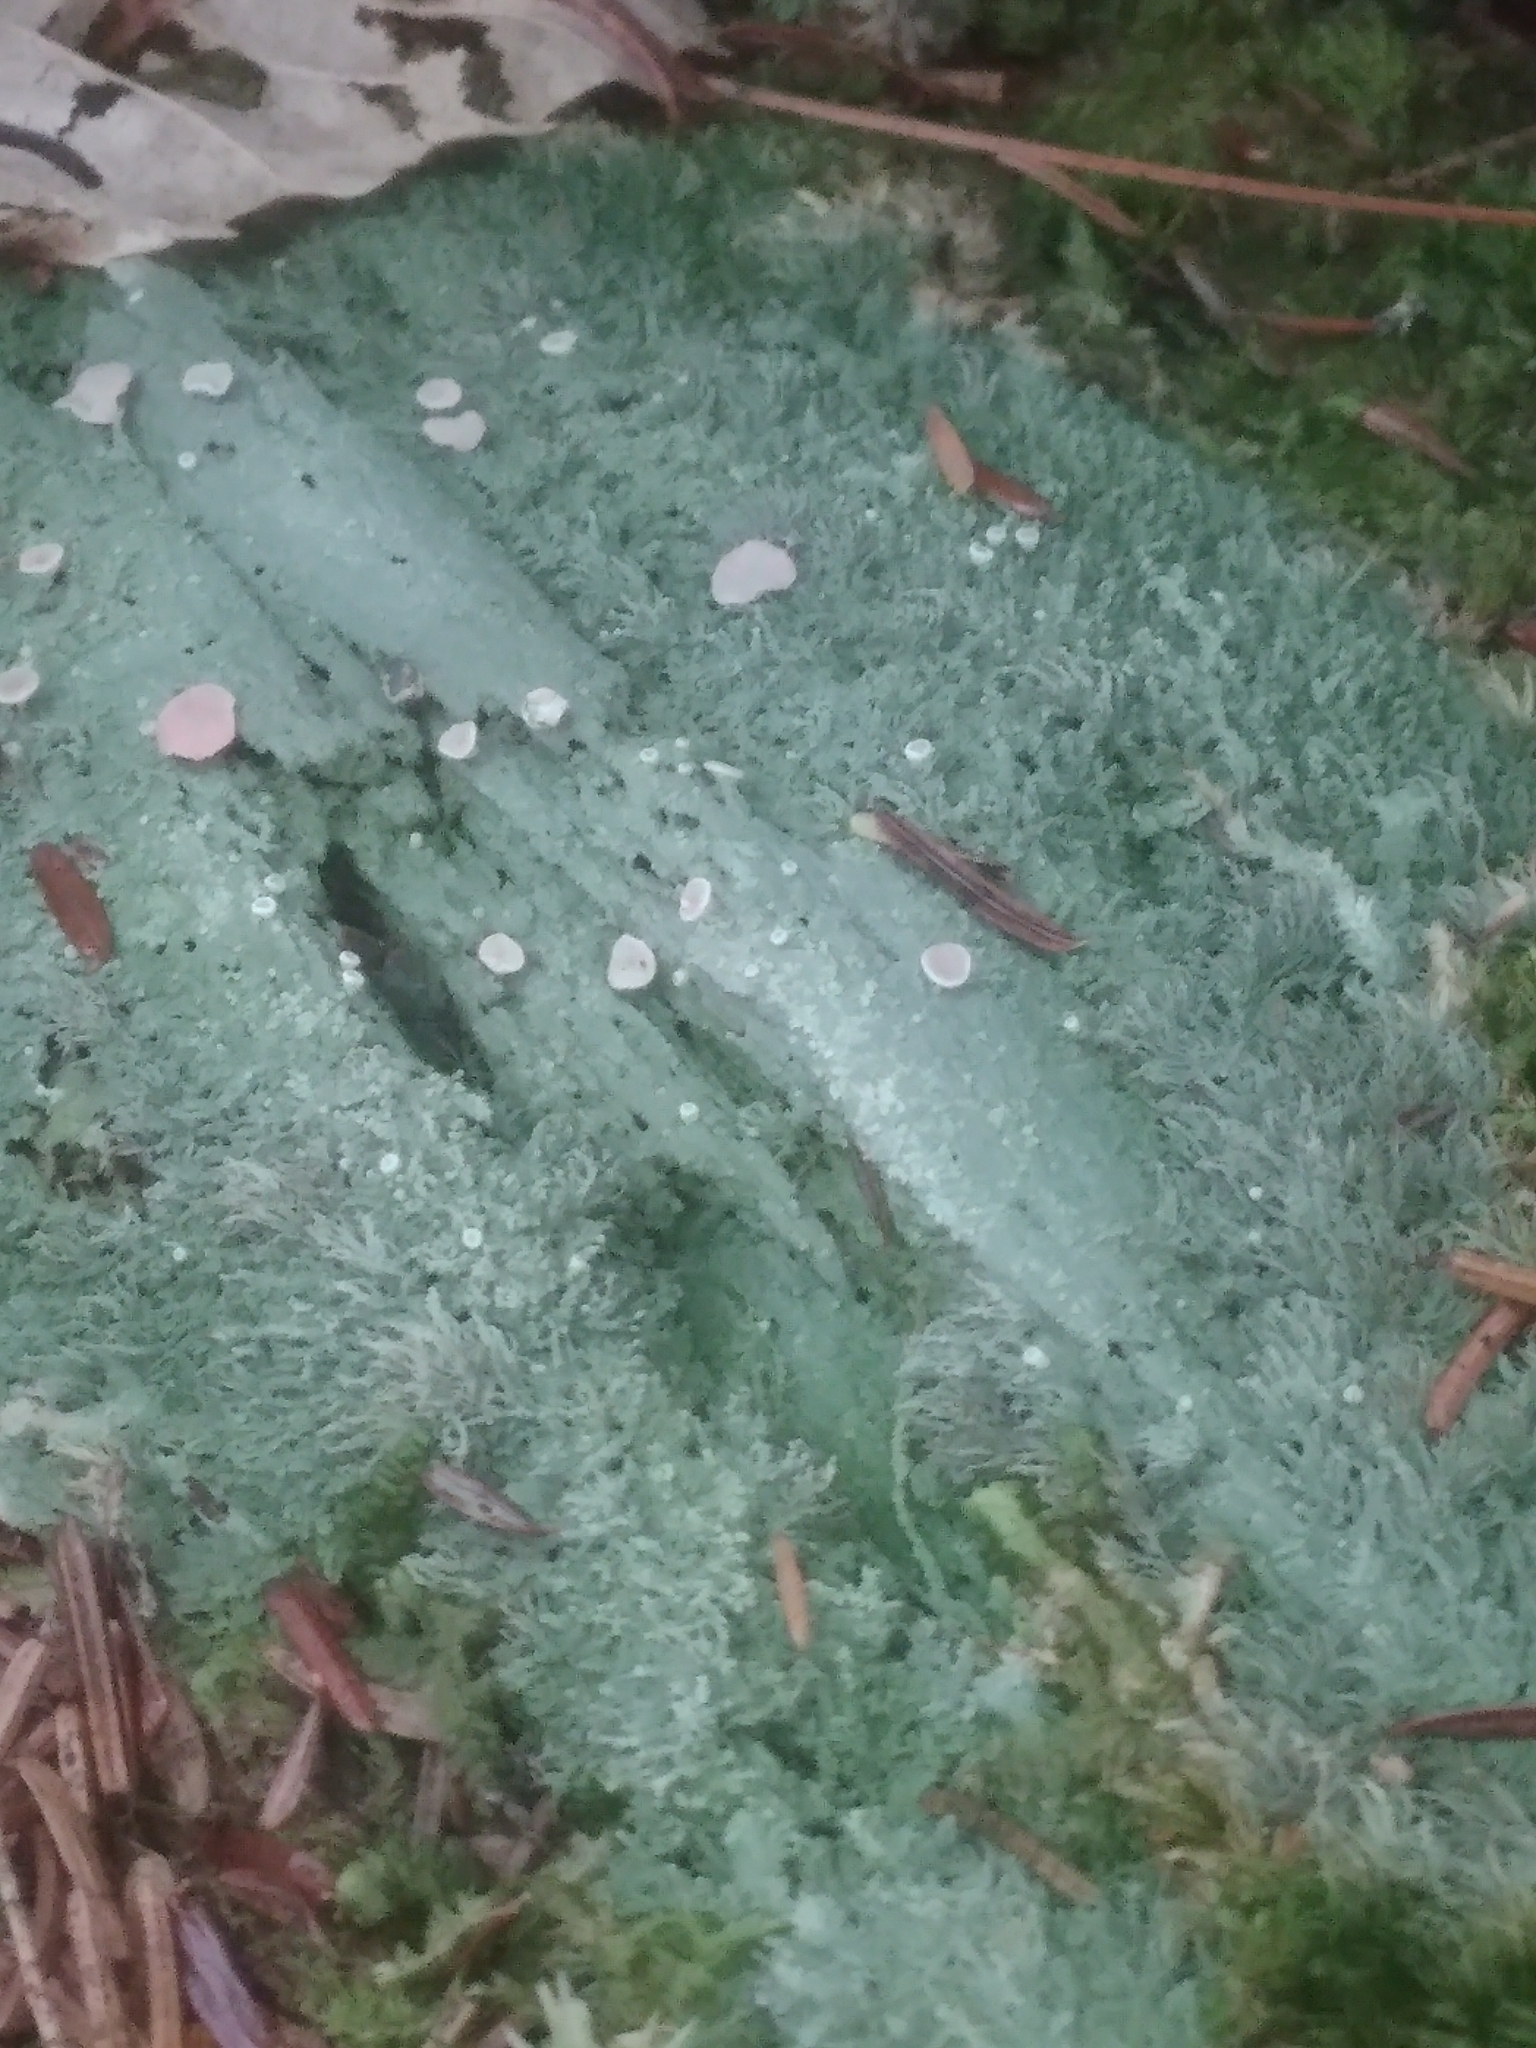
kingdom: Fungi
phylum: Ascomycota
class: Lecanoromycetes
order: Pertusariales
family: Icmadophilaceae
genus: Icmadophila
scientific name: Icmadophila ericetorum
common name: Candy lichen
